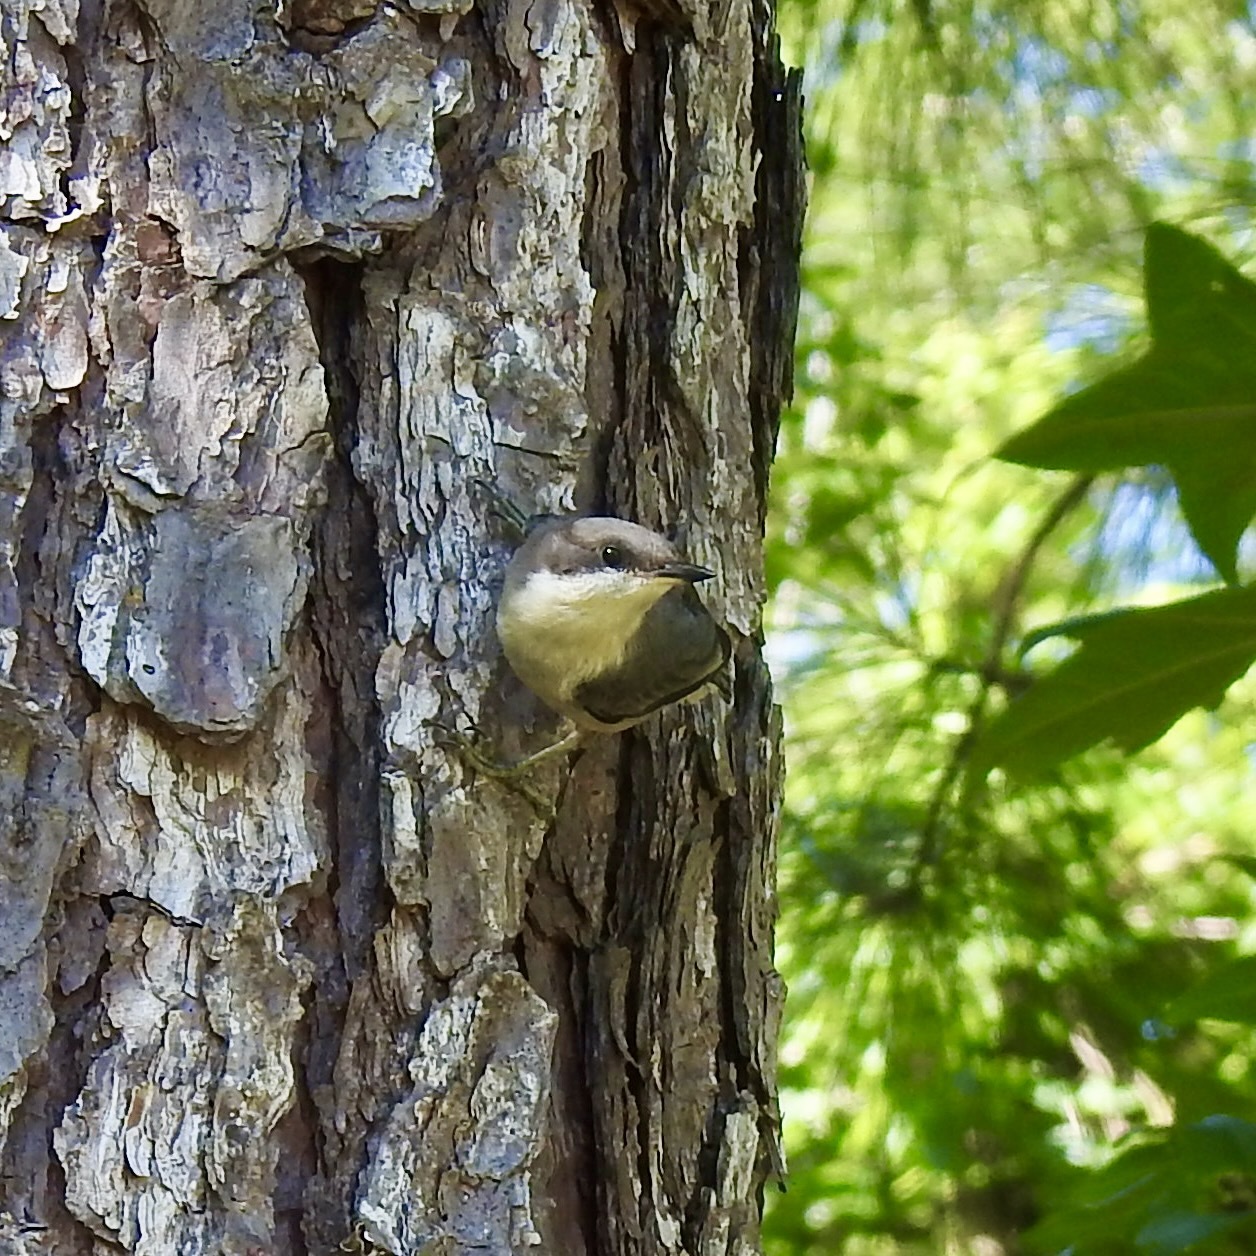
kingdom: Animalia
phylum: Chordata
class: Aves
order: Passeriformes
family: Sittidae
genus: Sitta
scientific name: Sitta pusilla
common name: Brown-headed nuthatch
